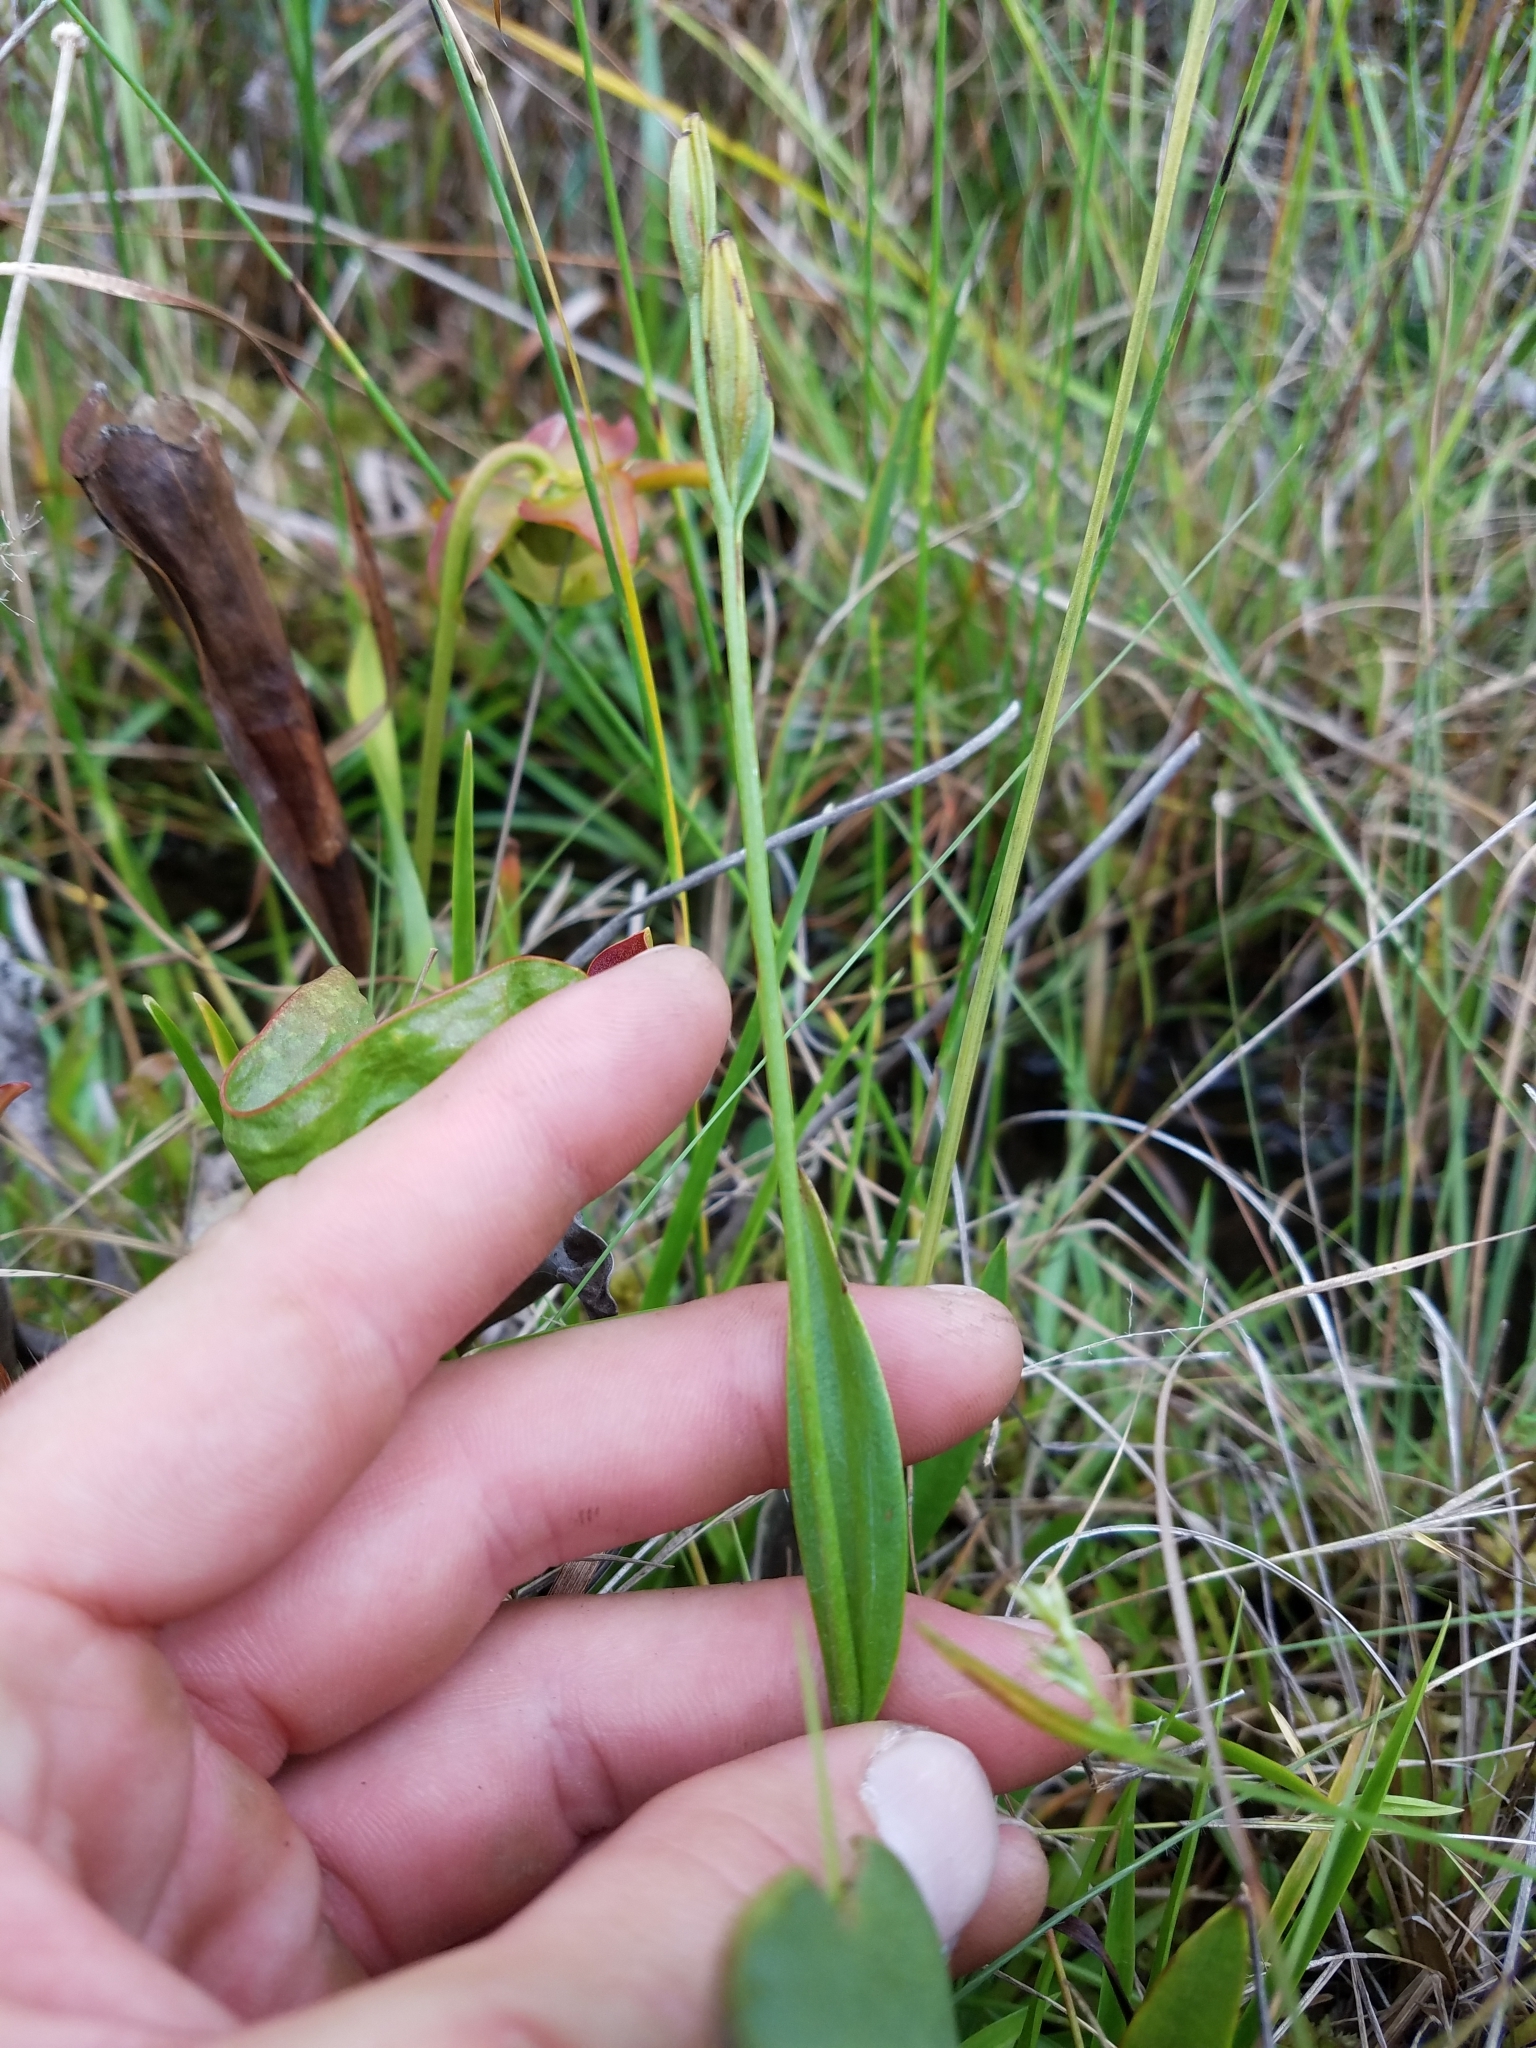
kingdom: Plantae
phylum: Tracheophyta
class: Liliopsida
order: Asparagales
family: Orchidaceae
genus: Pogonia
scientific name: Pogonia ophioglossoides
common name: Rose pogonia
